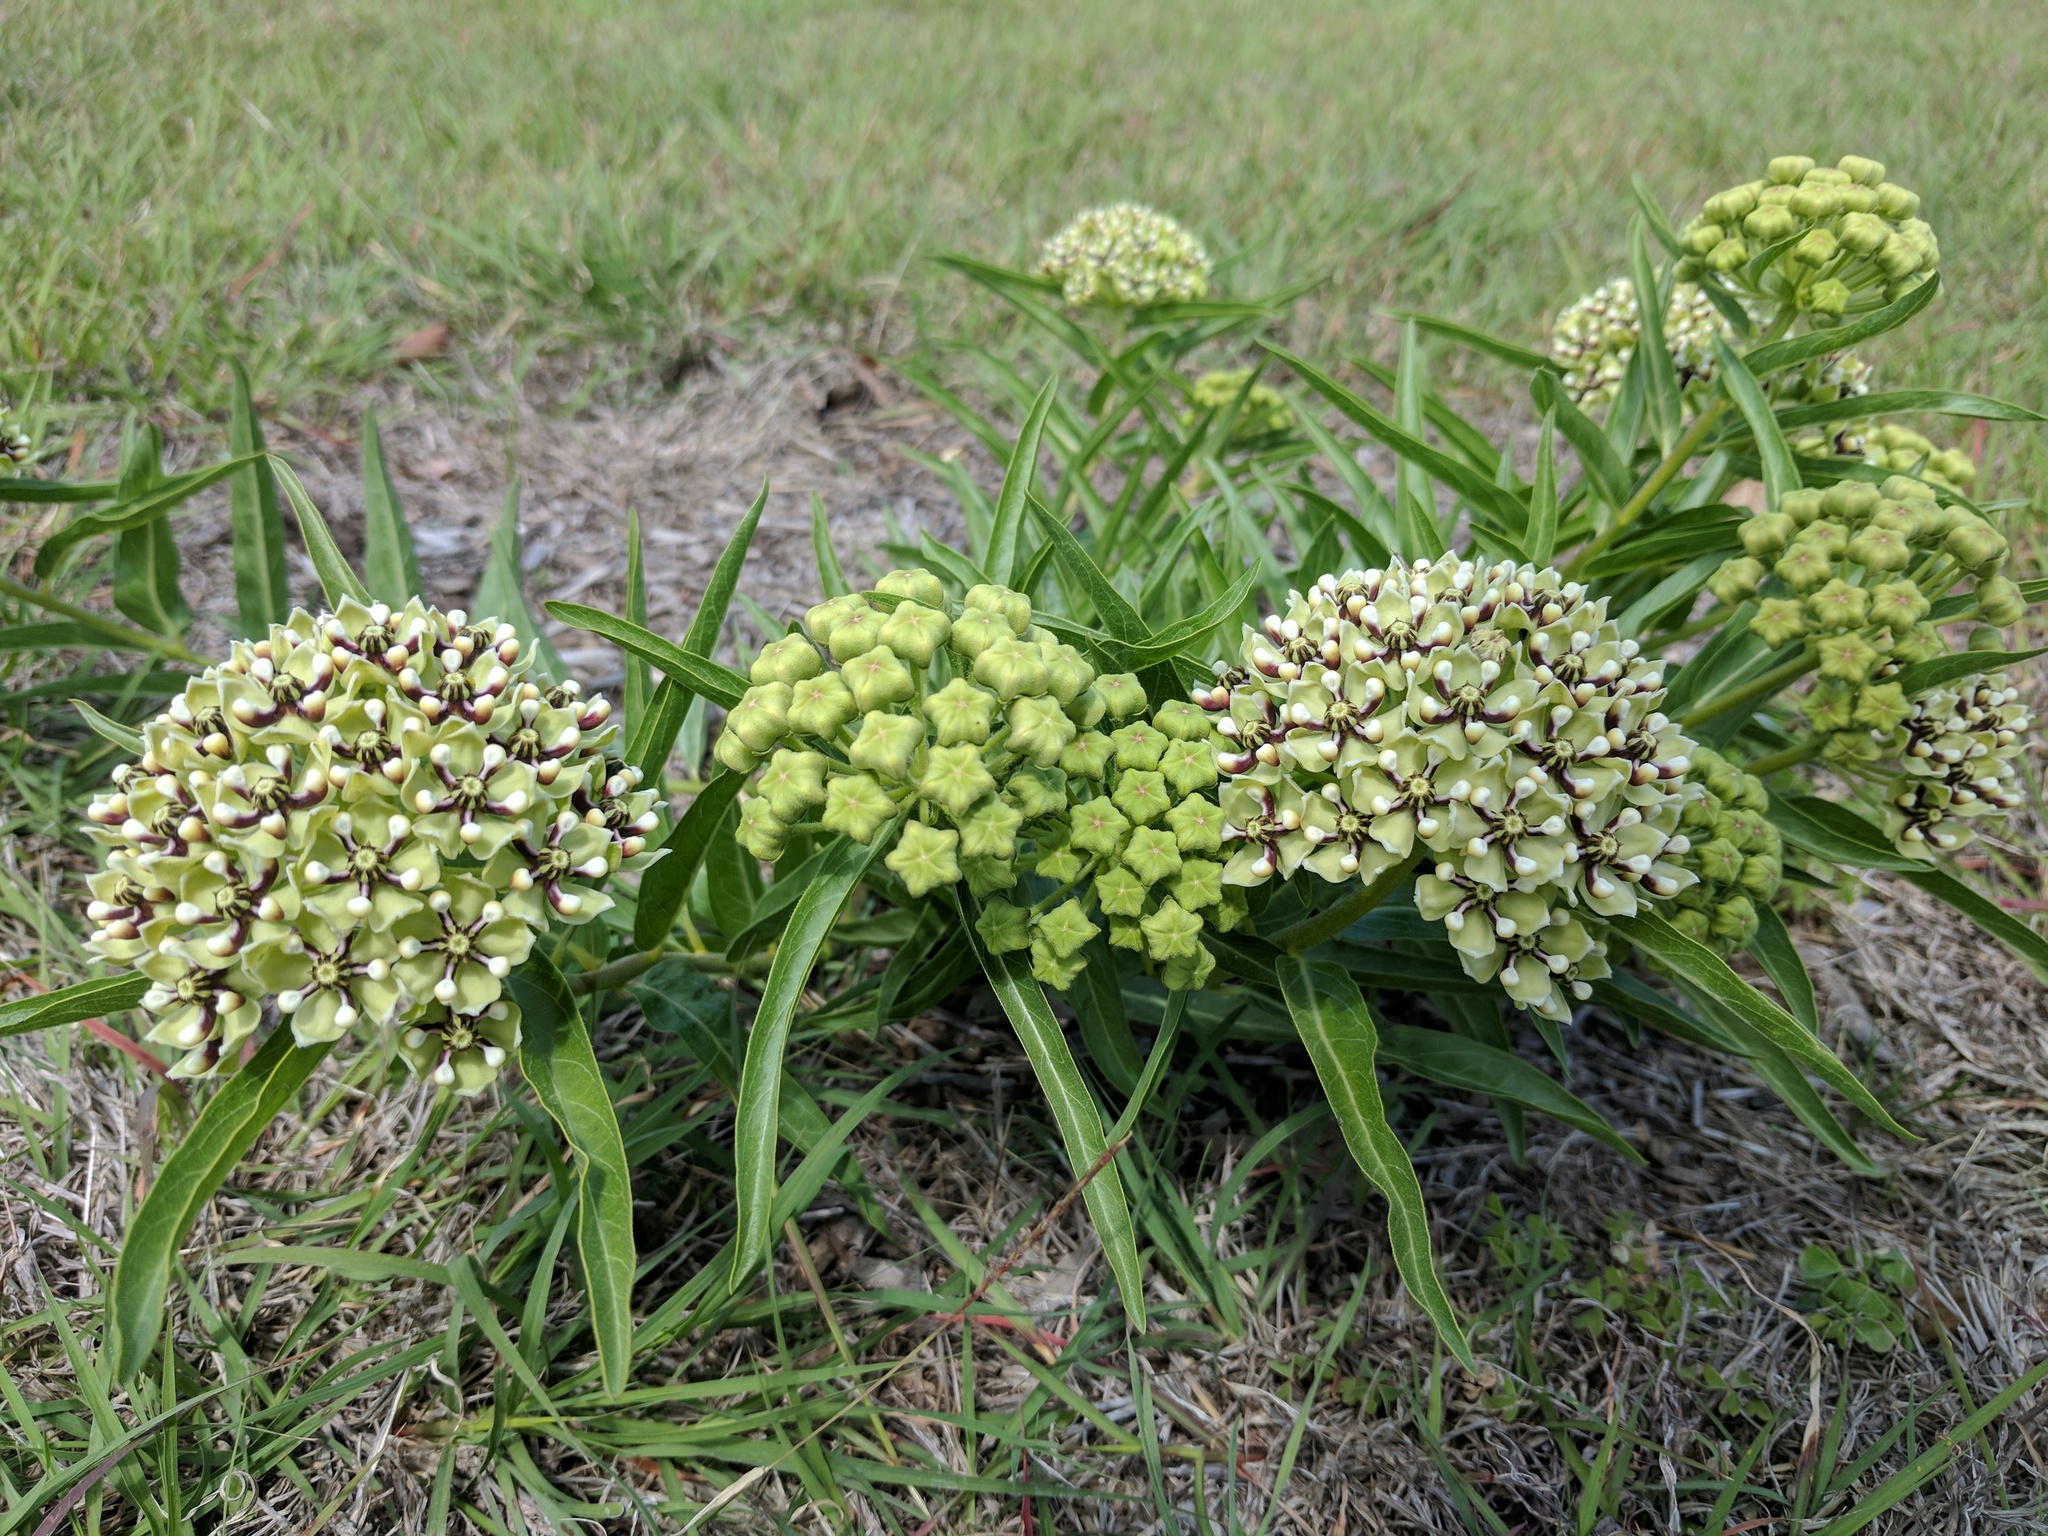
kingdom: Plantae
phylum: Tracheophyta
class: Magnoliopsida
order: Gentianales
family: Apocynaceae
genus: Asclepias
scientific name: Asclepias asperula
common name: Antelope horns
